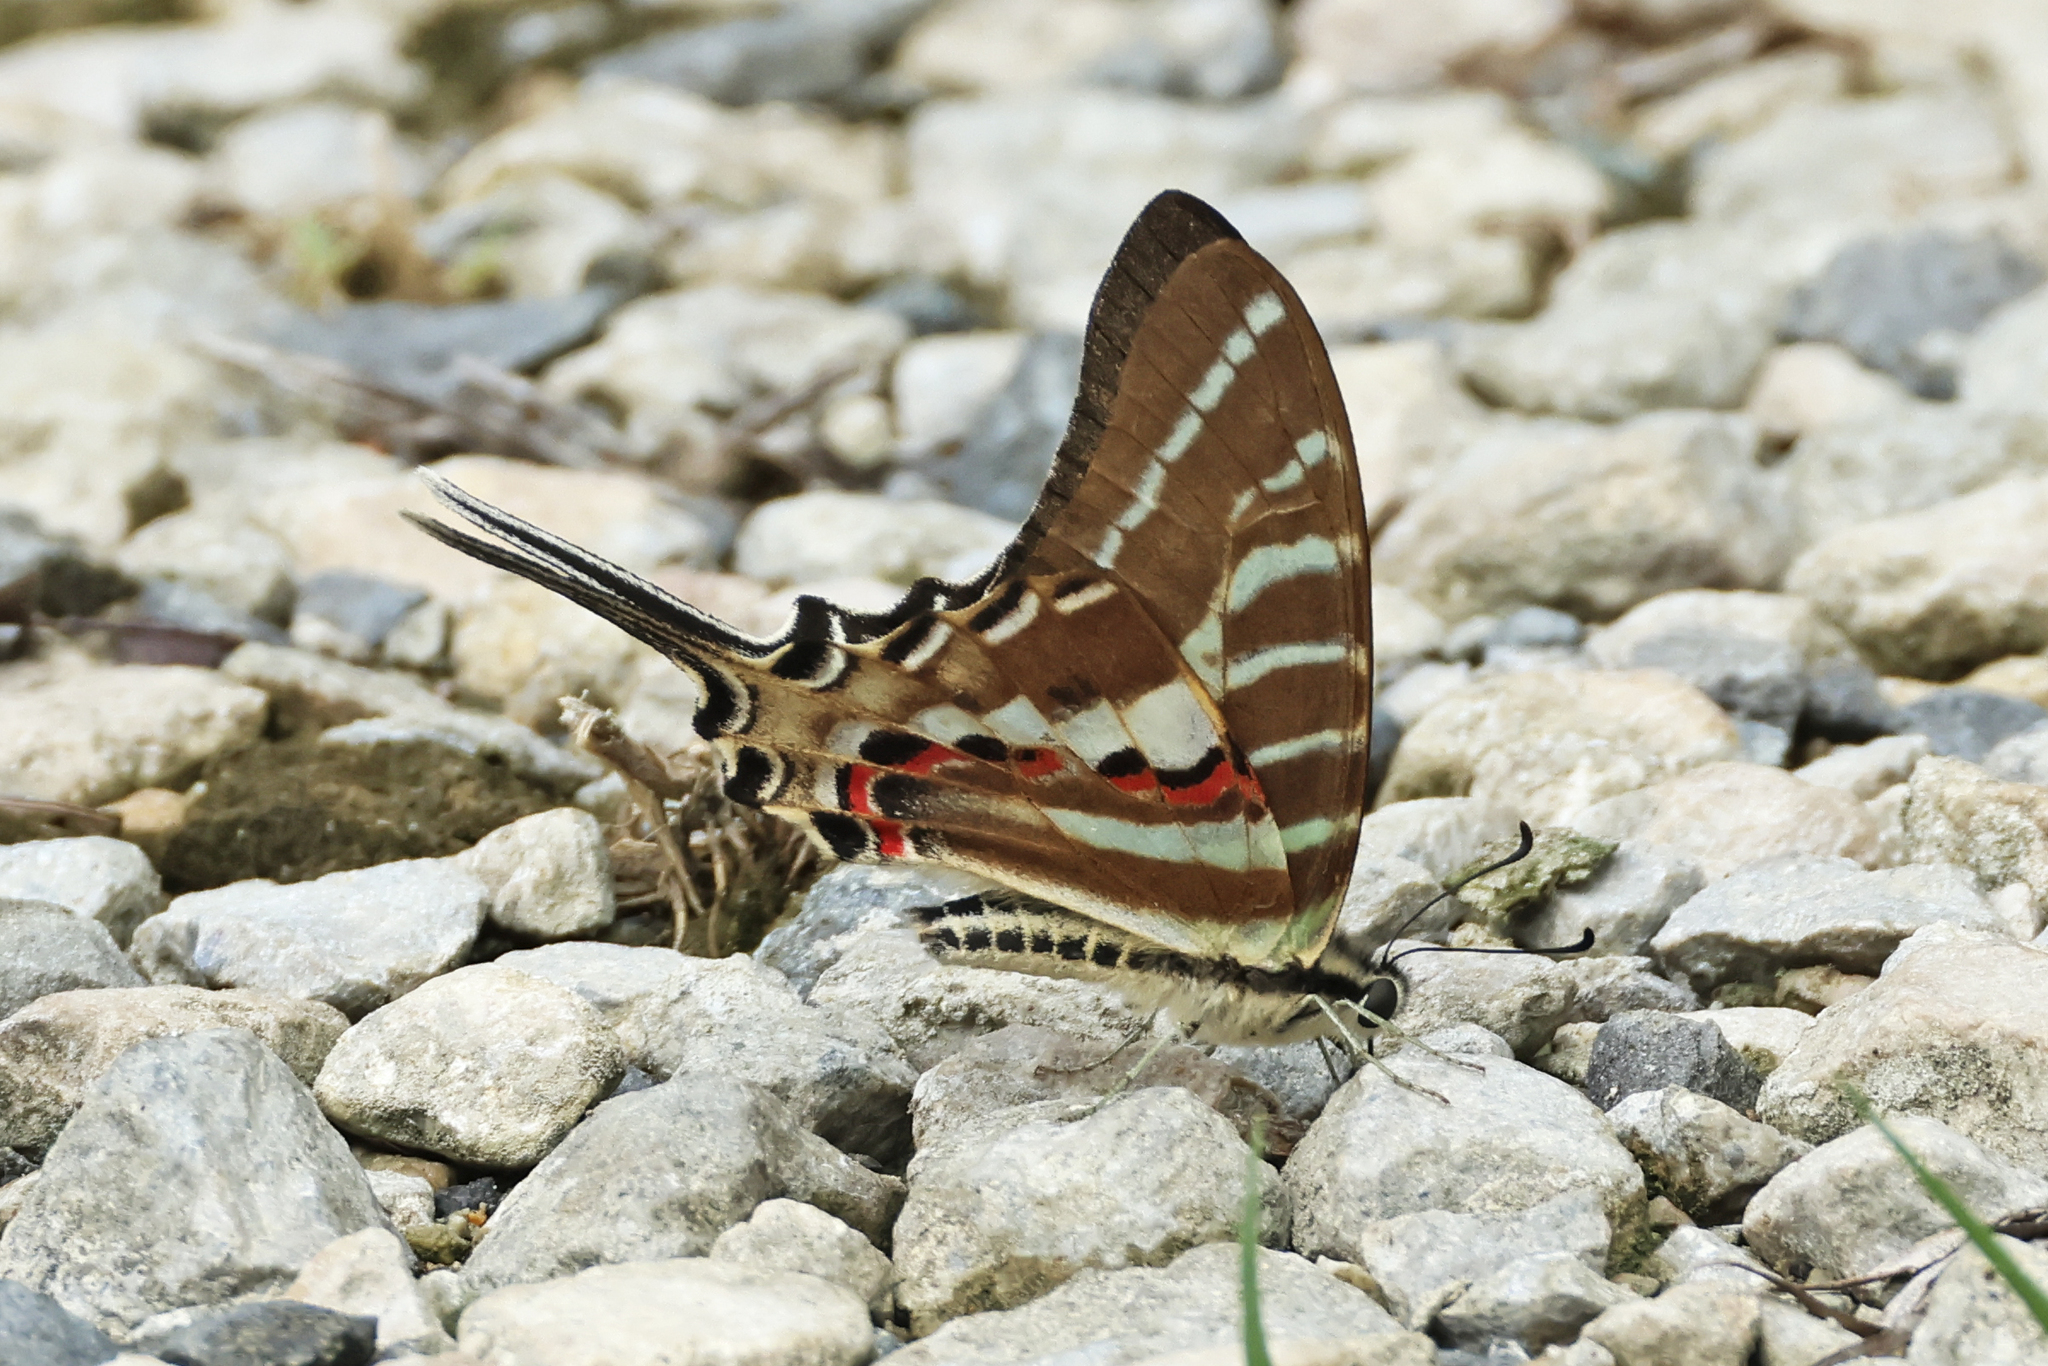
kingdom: Animalia
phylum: Arthropoda
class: Insecta
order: Lepidoptera
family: Papilionidae
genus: Graphium
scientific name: Graphium aristeus
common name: Chain swordtail
